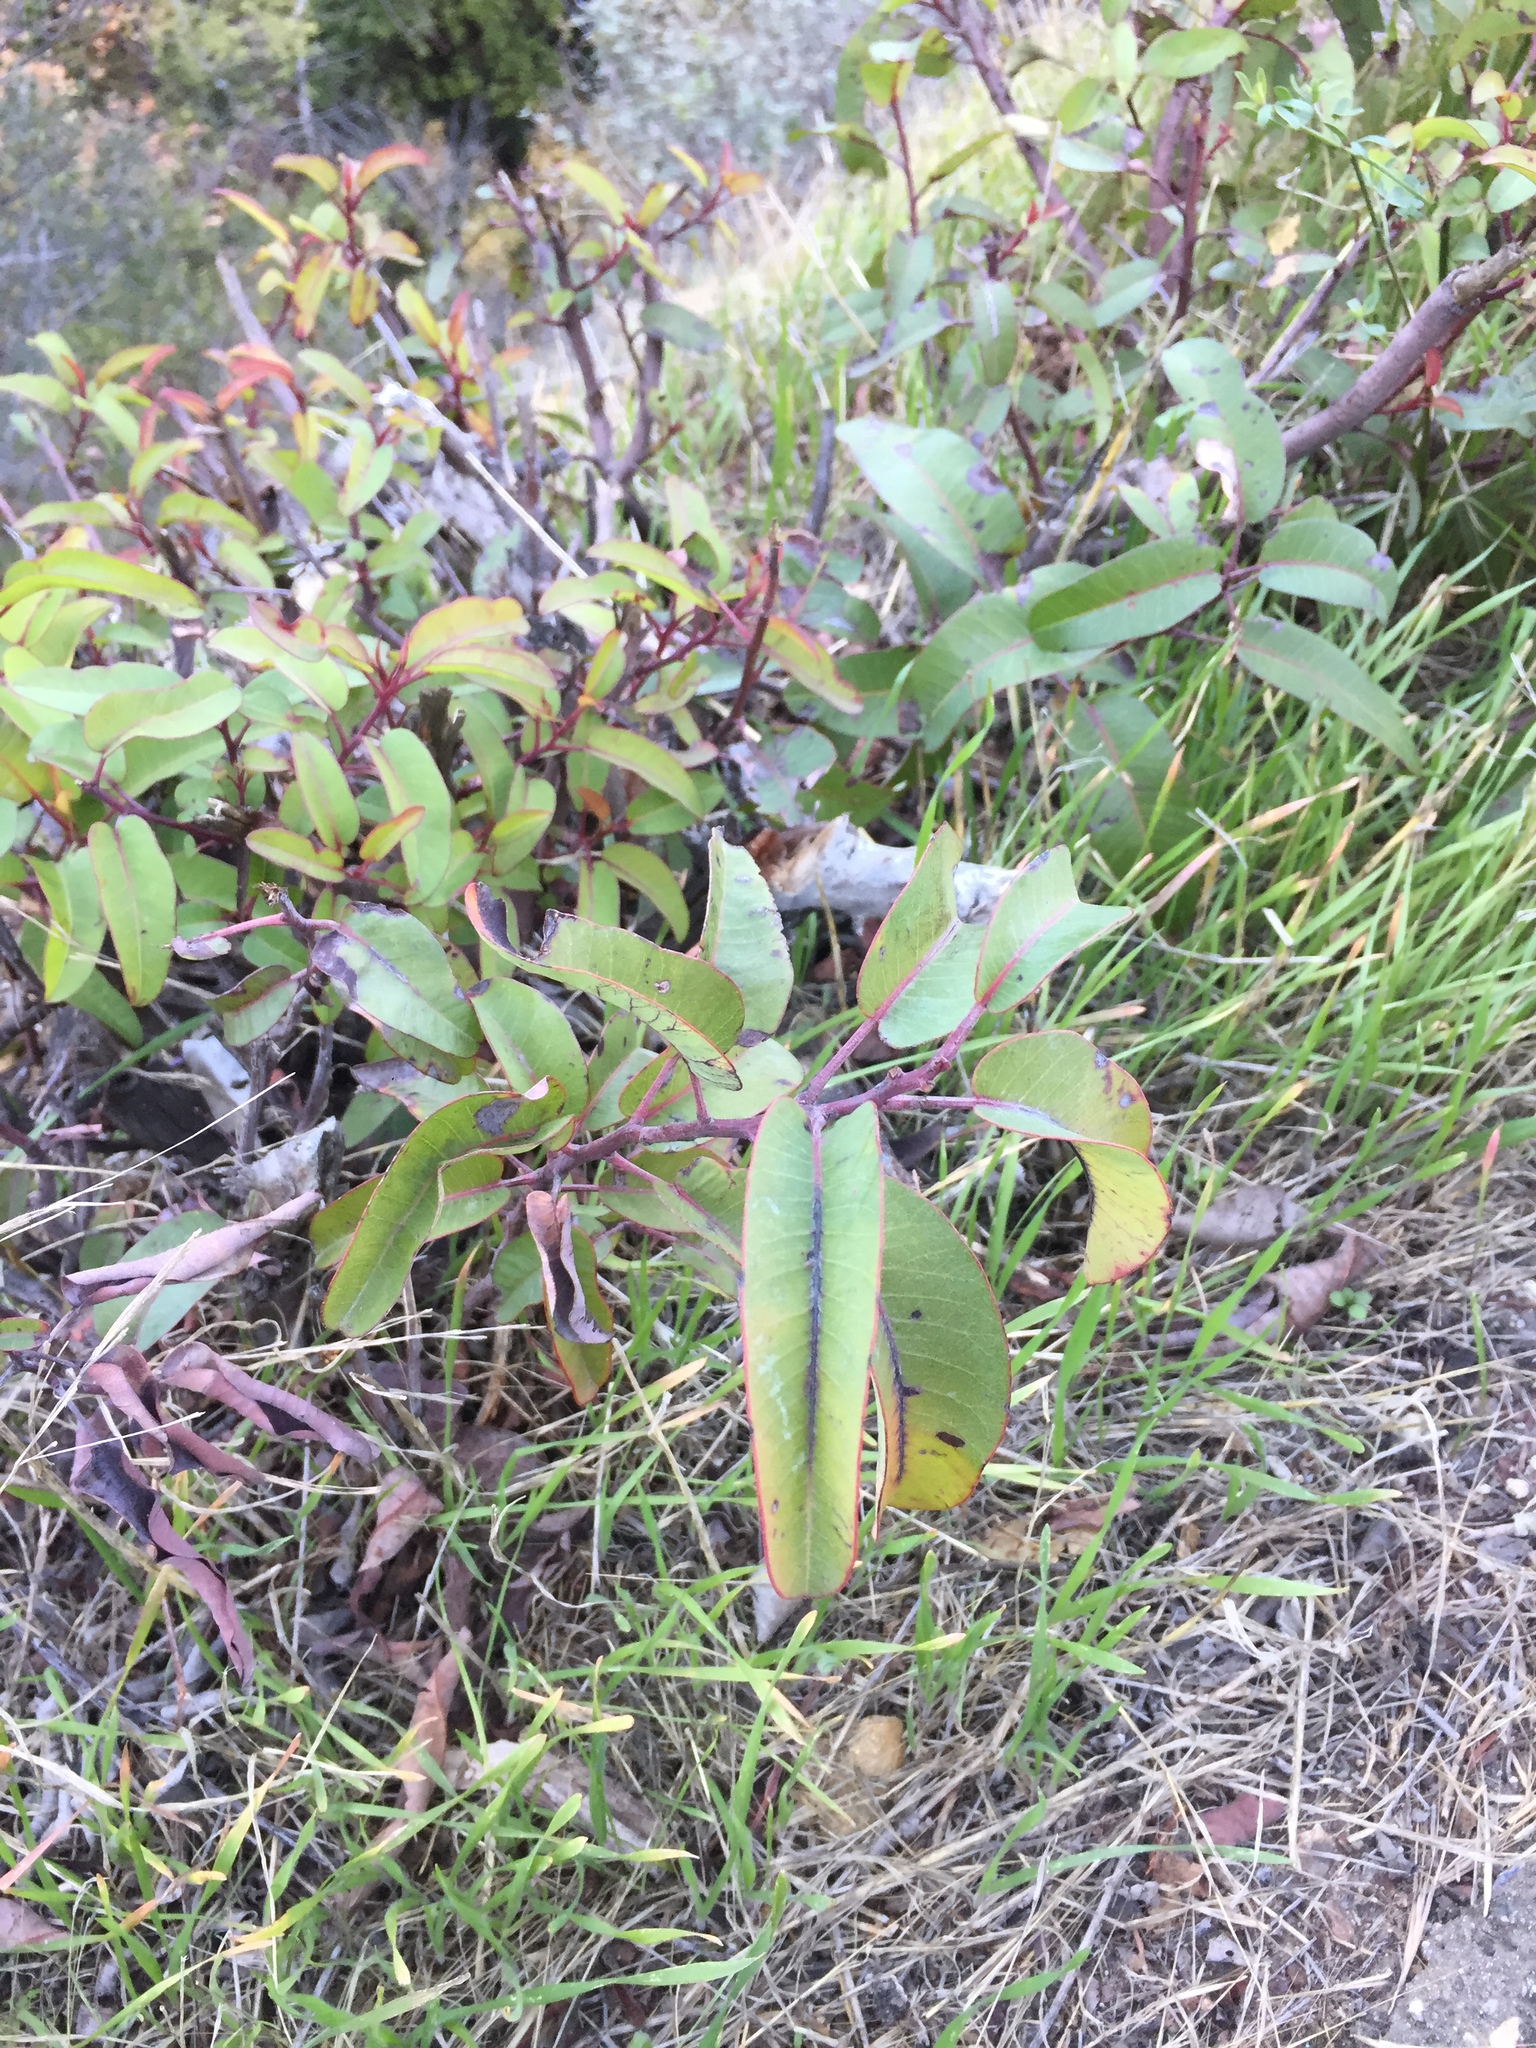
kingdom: Plantae
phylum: Tracheophyta
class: Magnoliopsida
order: Sapindales
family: Anacardiaceae
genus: Malosma
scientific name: Malosma laurina
